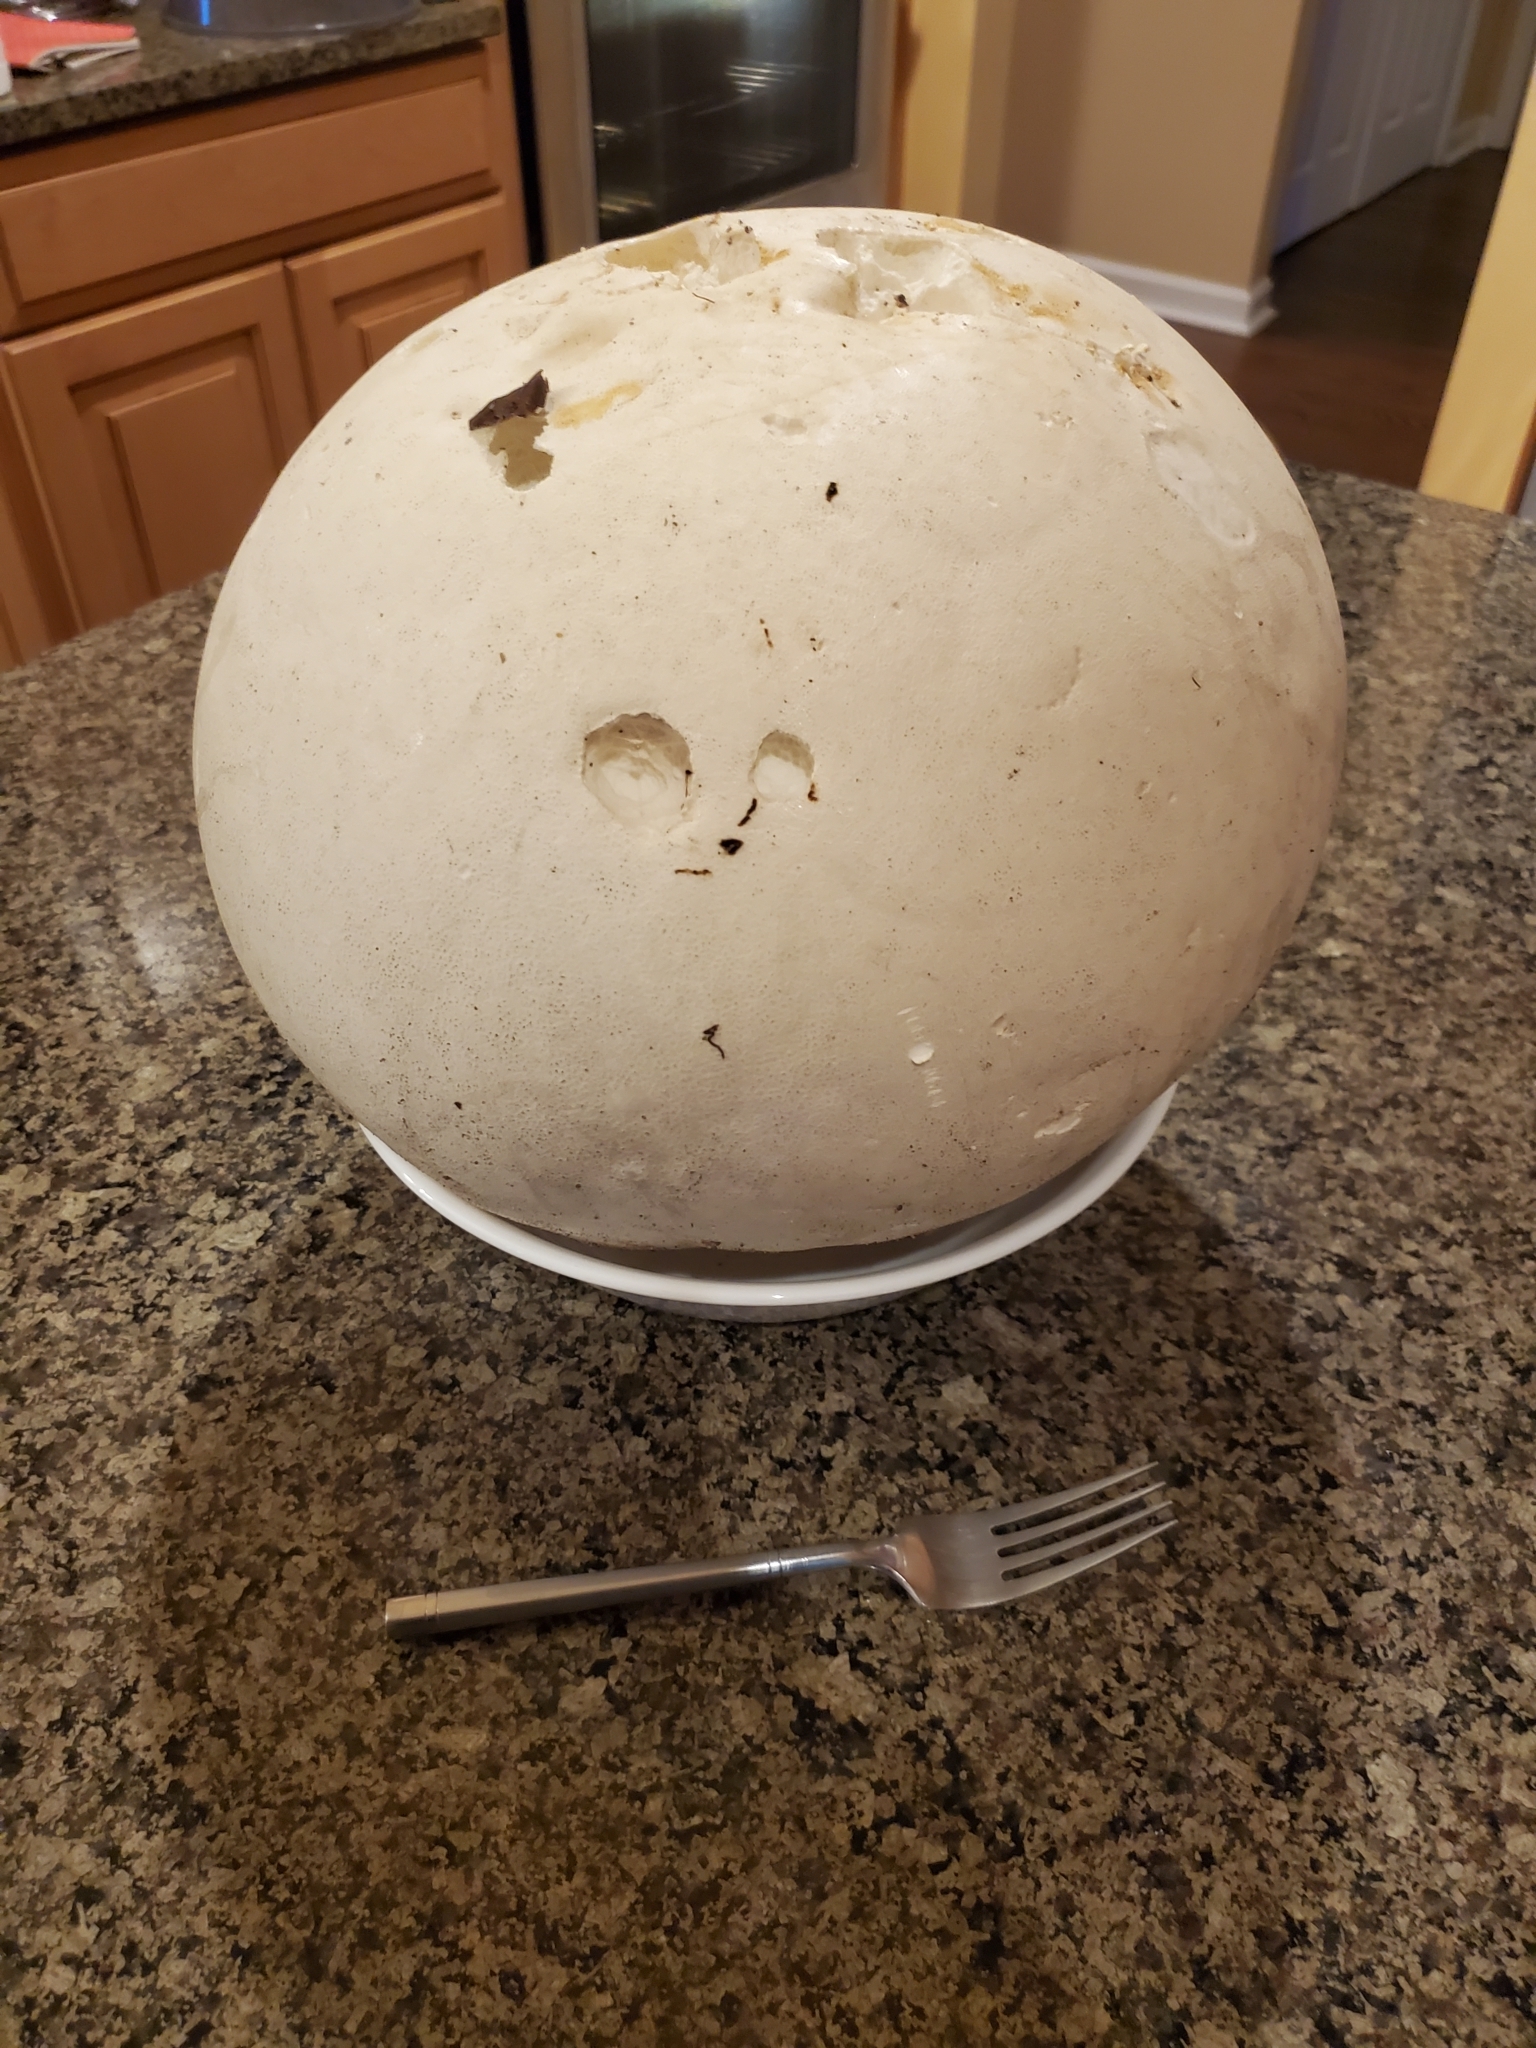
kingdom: Fungi
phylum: Basidiomycota
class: Agaricomycetes
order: Agaricales
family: Lycoperdaceae
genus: Calvatia
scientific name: Calvatia gigantea
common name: Giant puffball
